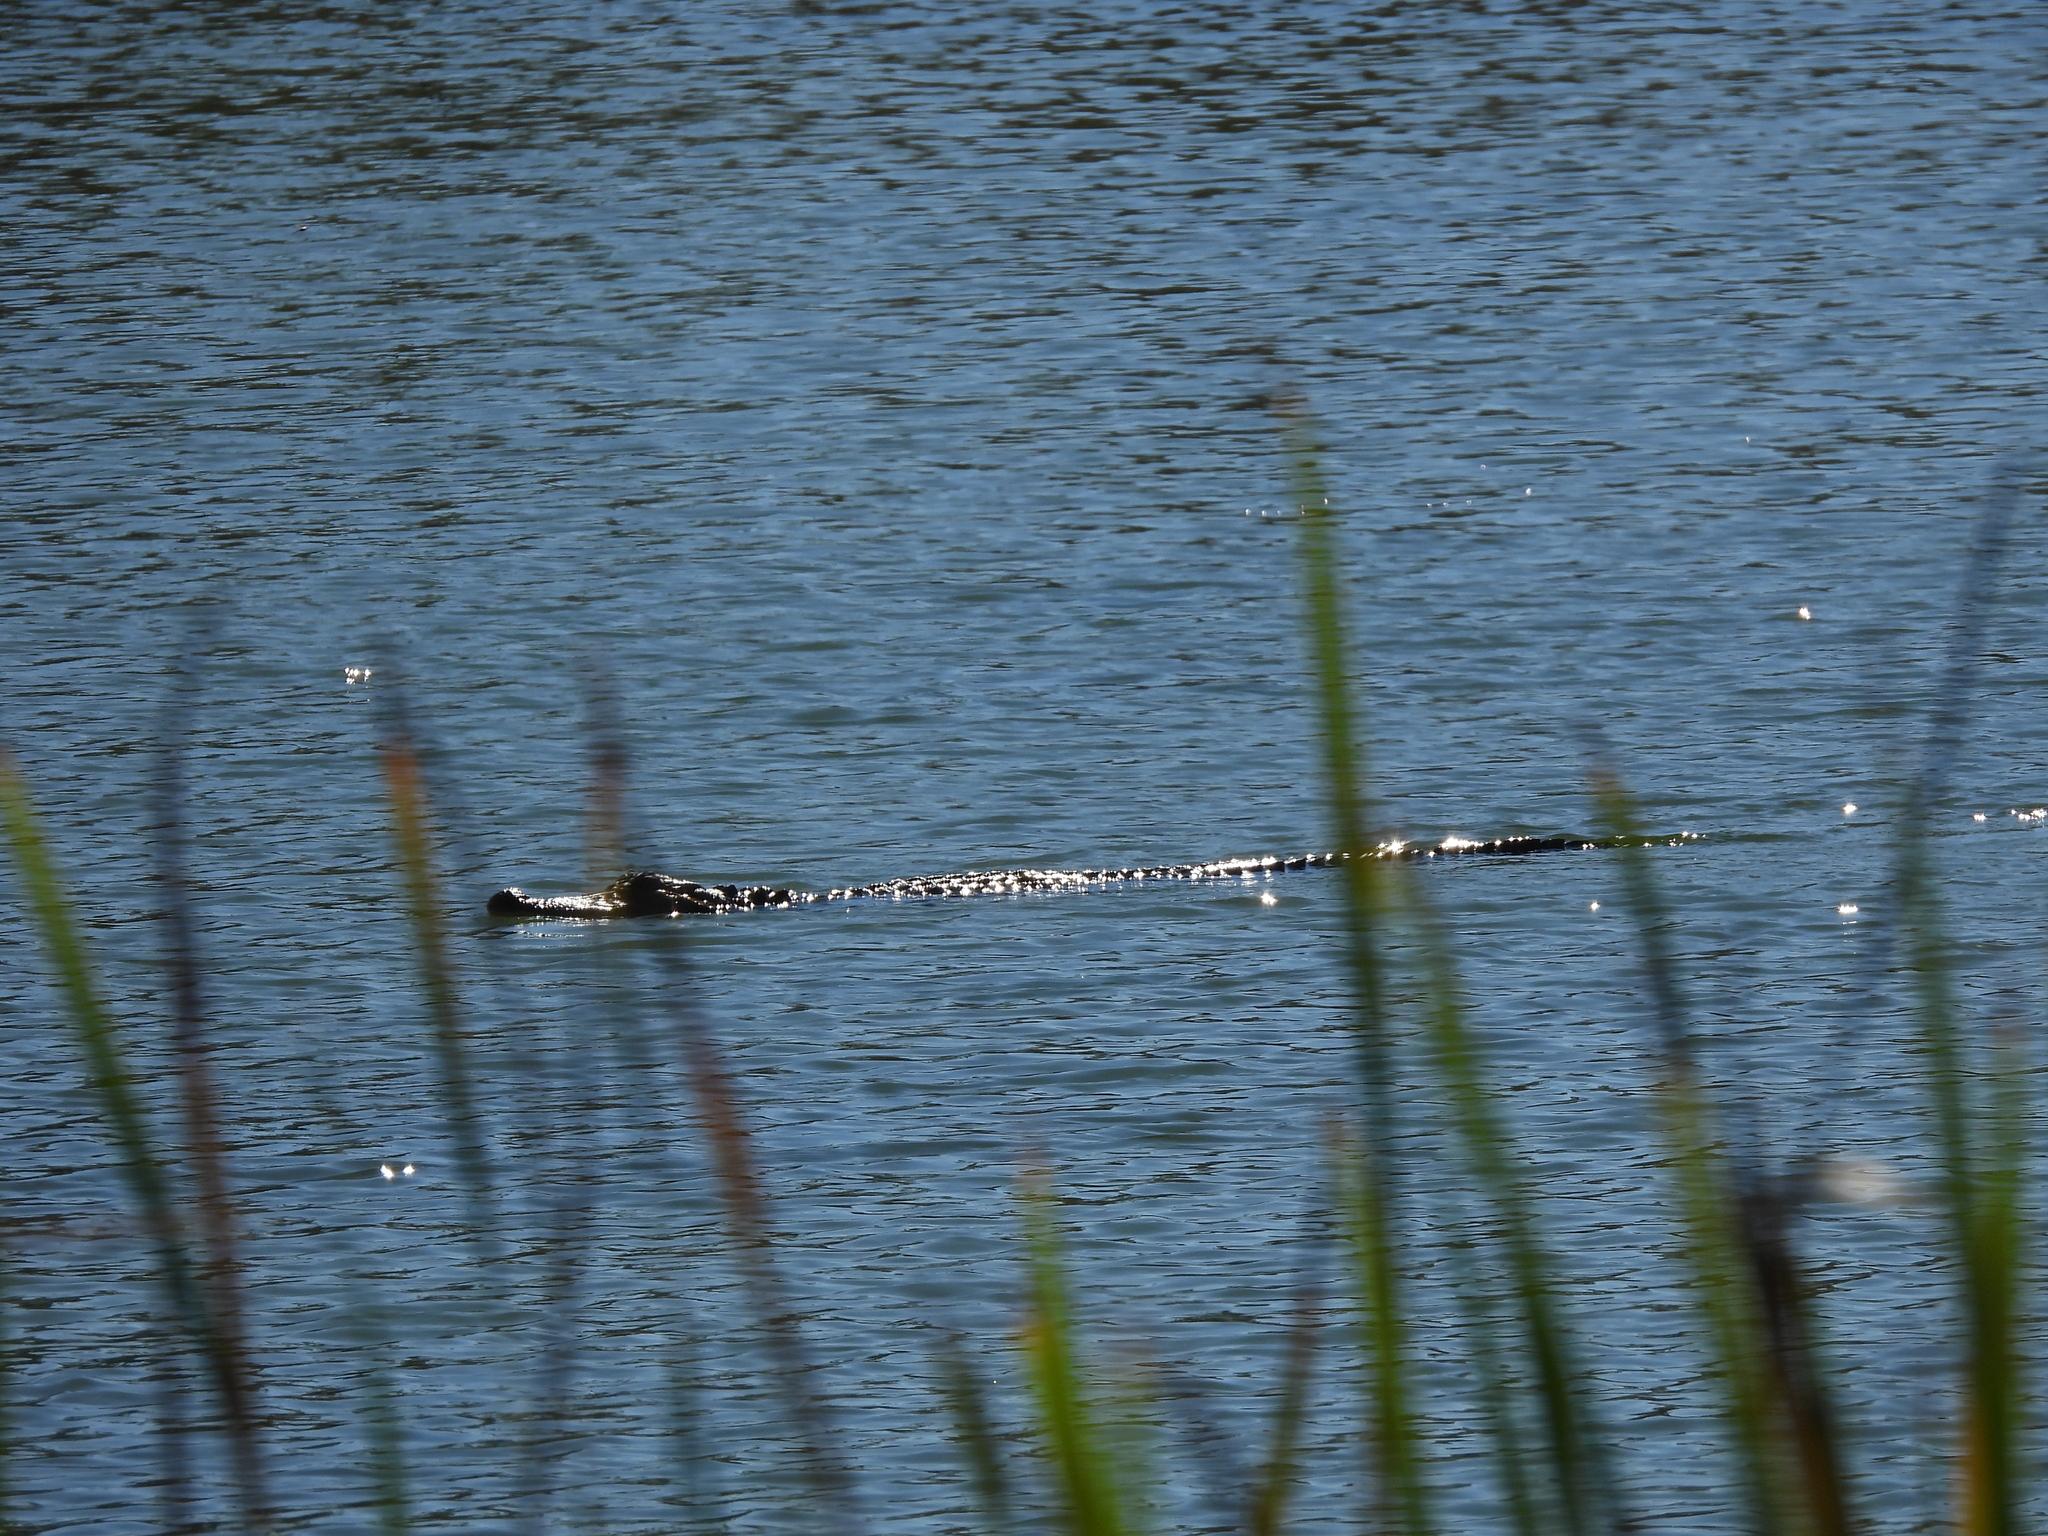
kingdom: Animalia
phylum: Chordata
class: Crocodylia
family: Alligatoridae
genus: Alligator
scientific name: Alligator mississippiensis
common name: American alligator
